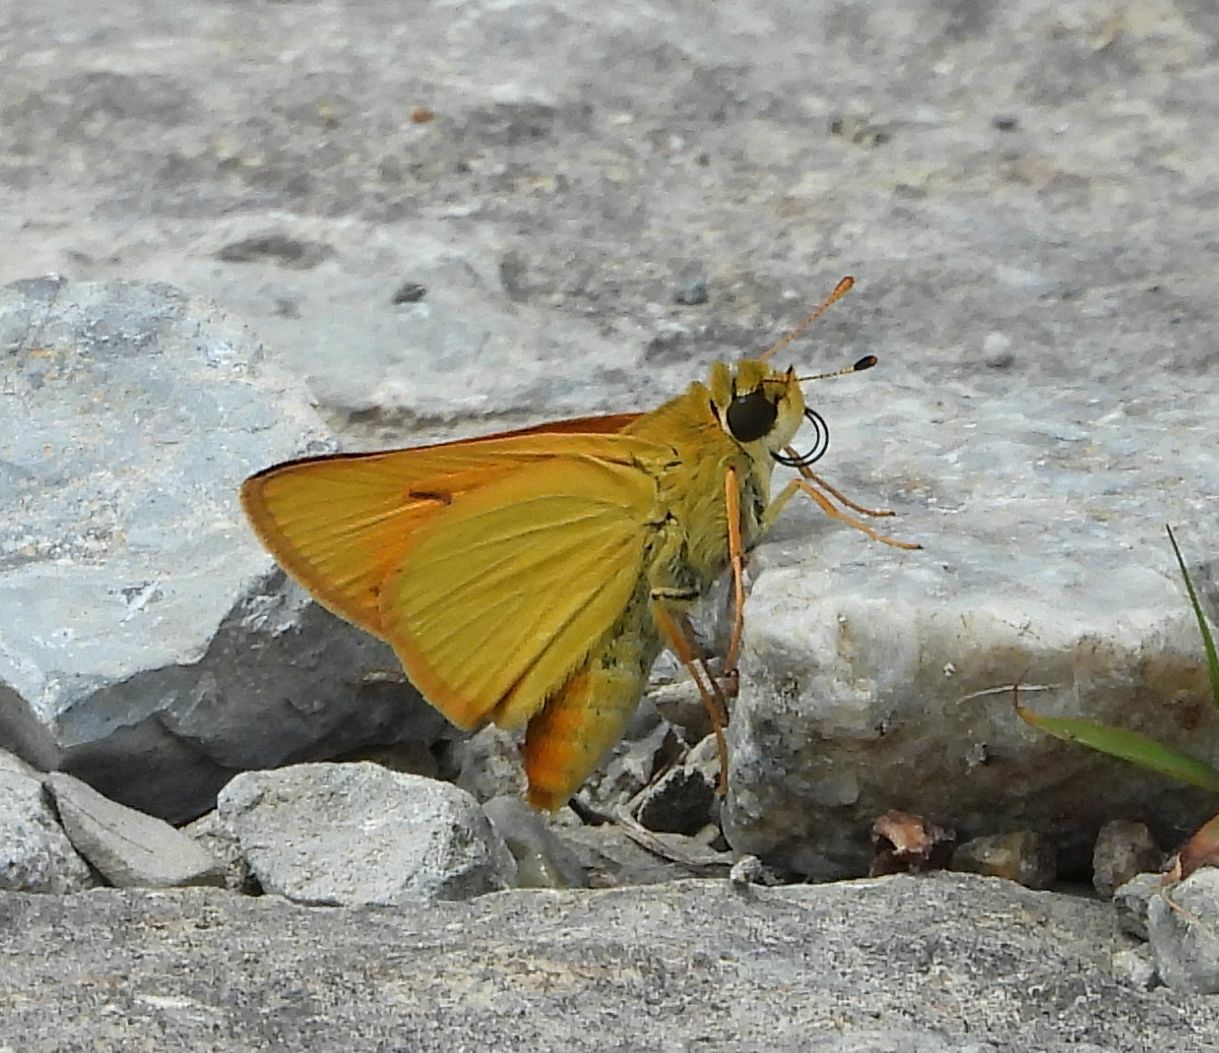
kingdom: Animalia
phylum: Arthropoda
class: Insecta
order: Lepidoptera
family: Hesperiidae
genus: Atrytone
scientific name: Atrytone delaware
